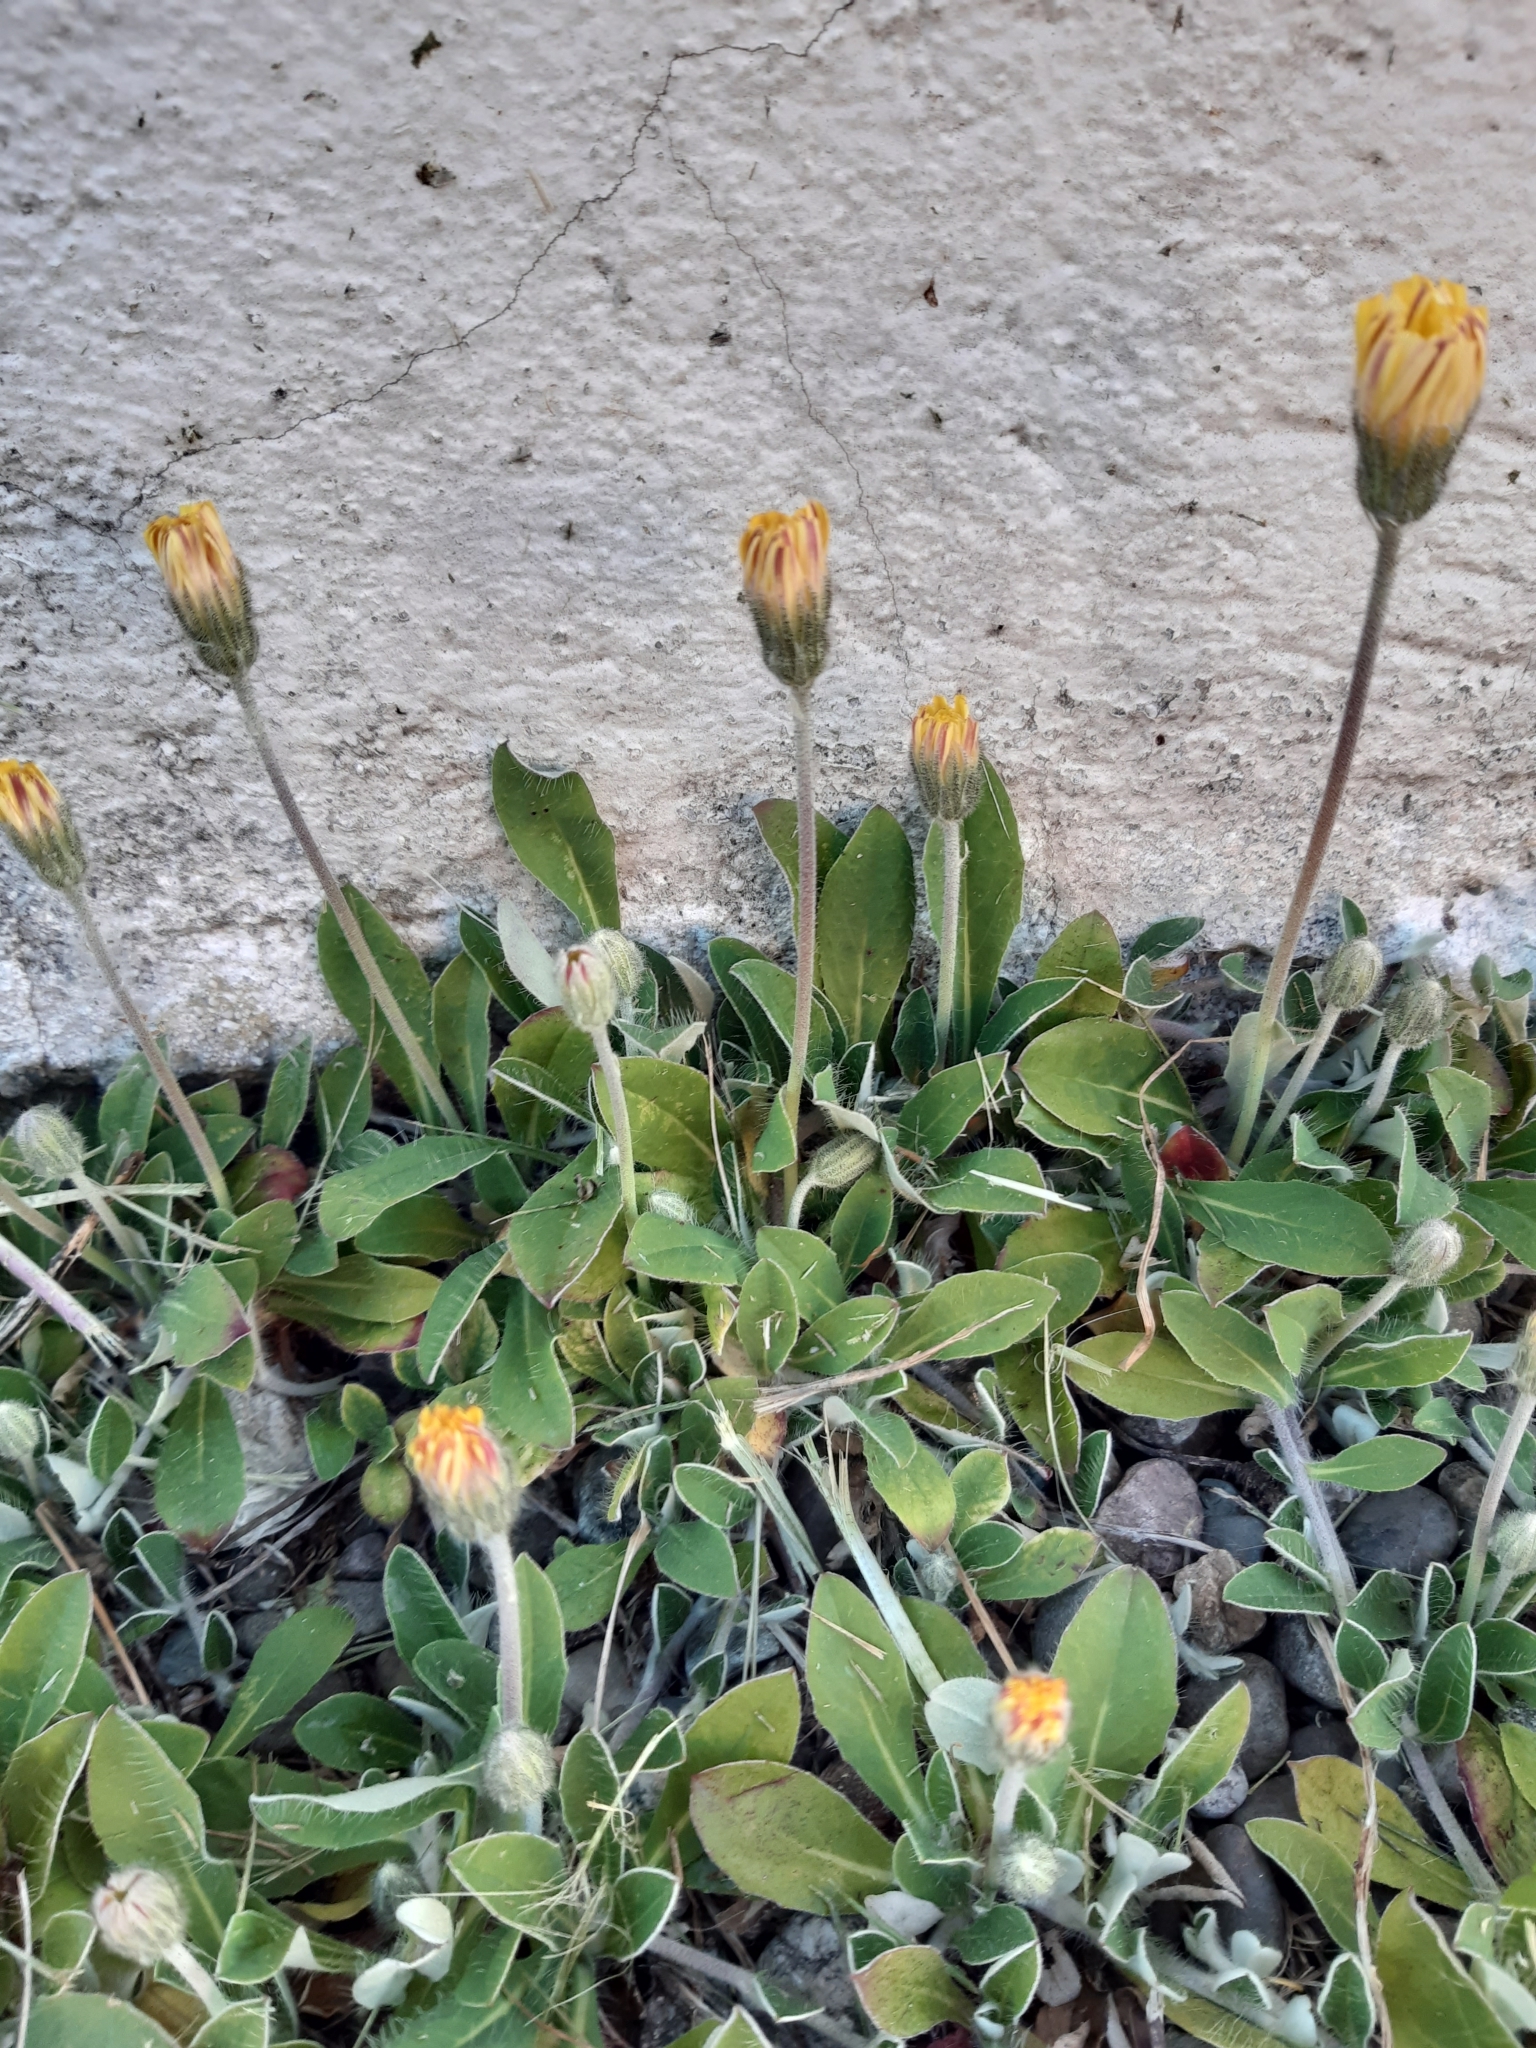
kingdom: Plantae
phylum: Tracheophyta
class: Magnoliopsida
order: Asterales
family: Asteraceae
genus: Pilosella
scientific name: Pilosella officinarum
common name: Mouse-ear hawkweed
